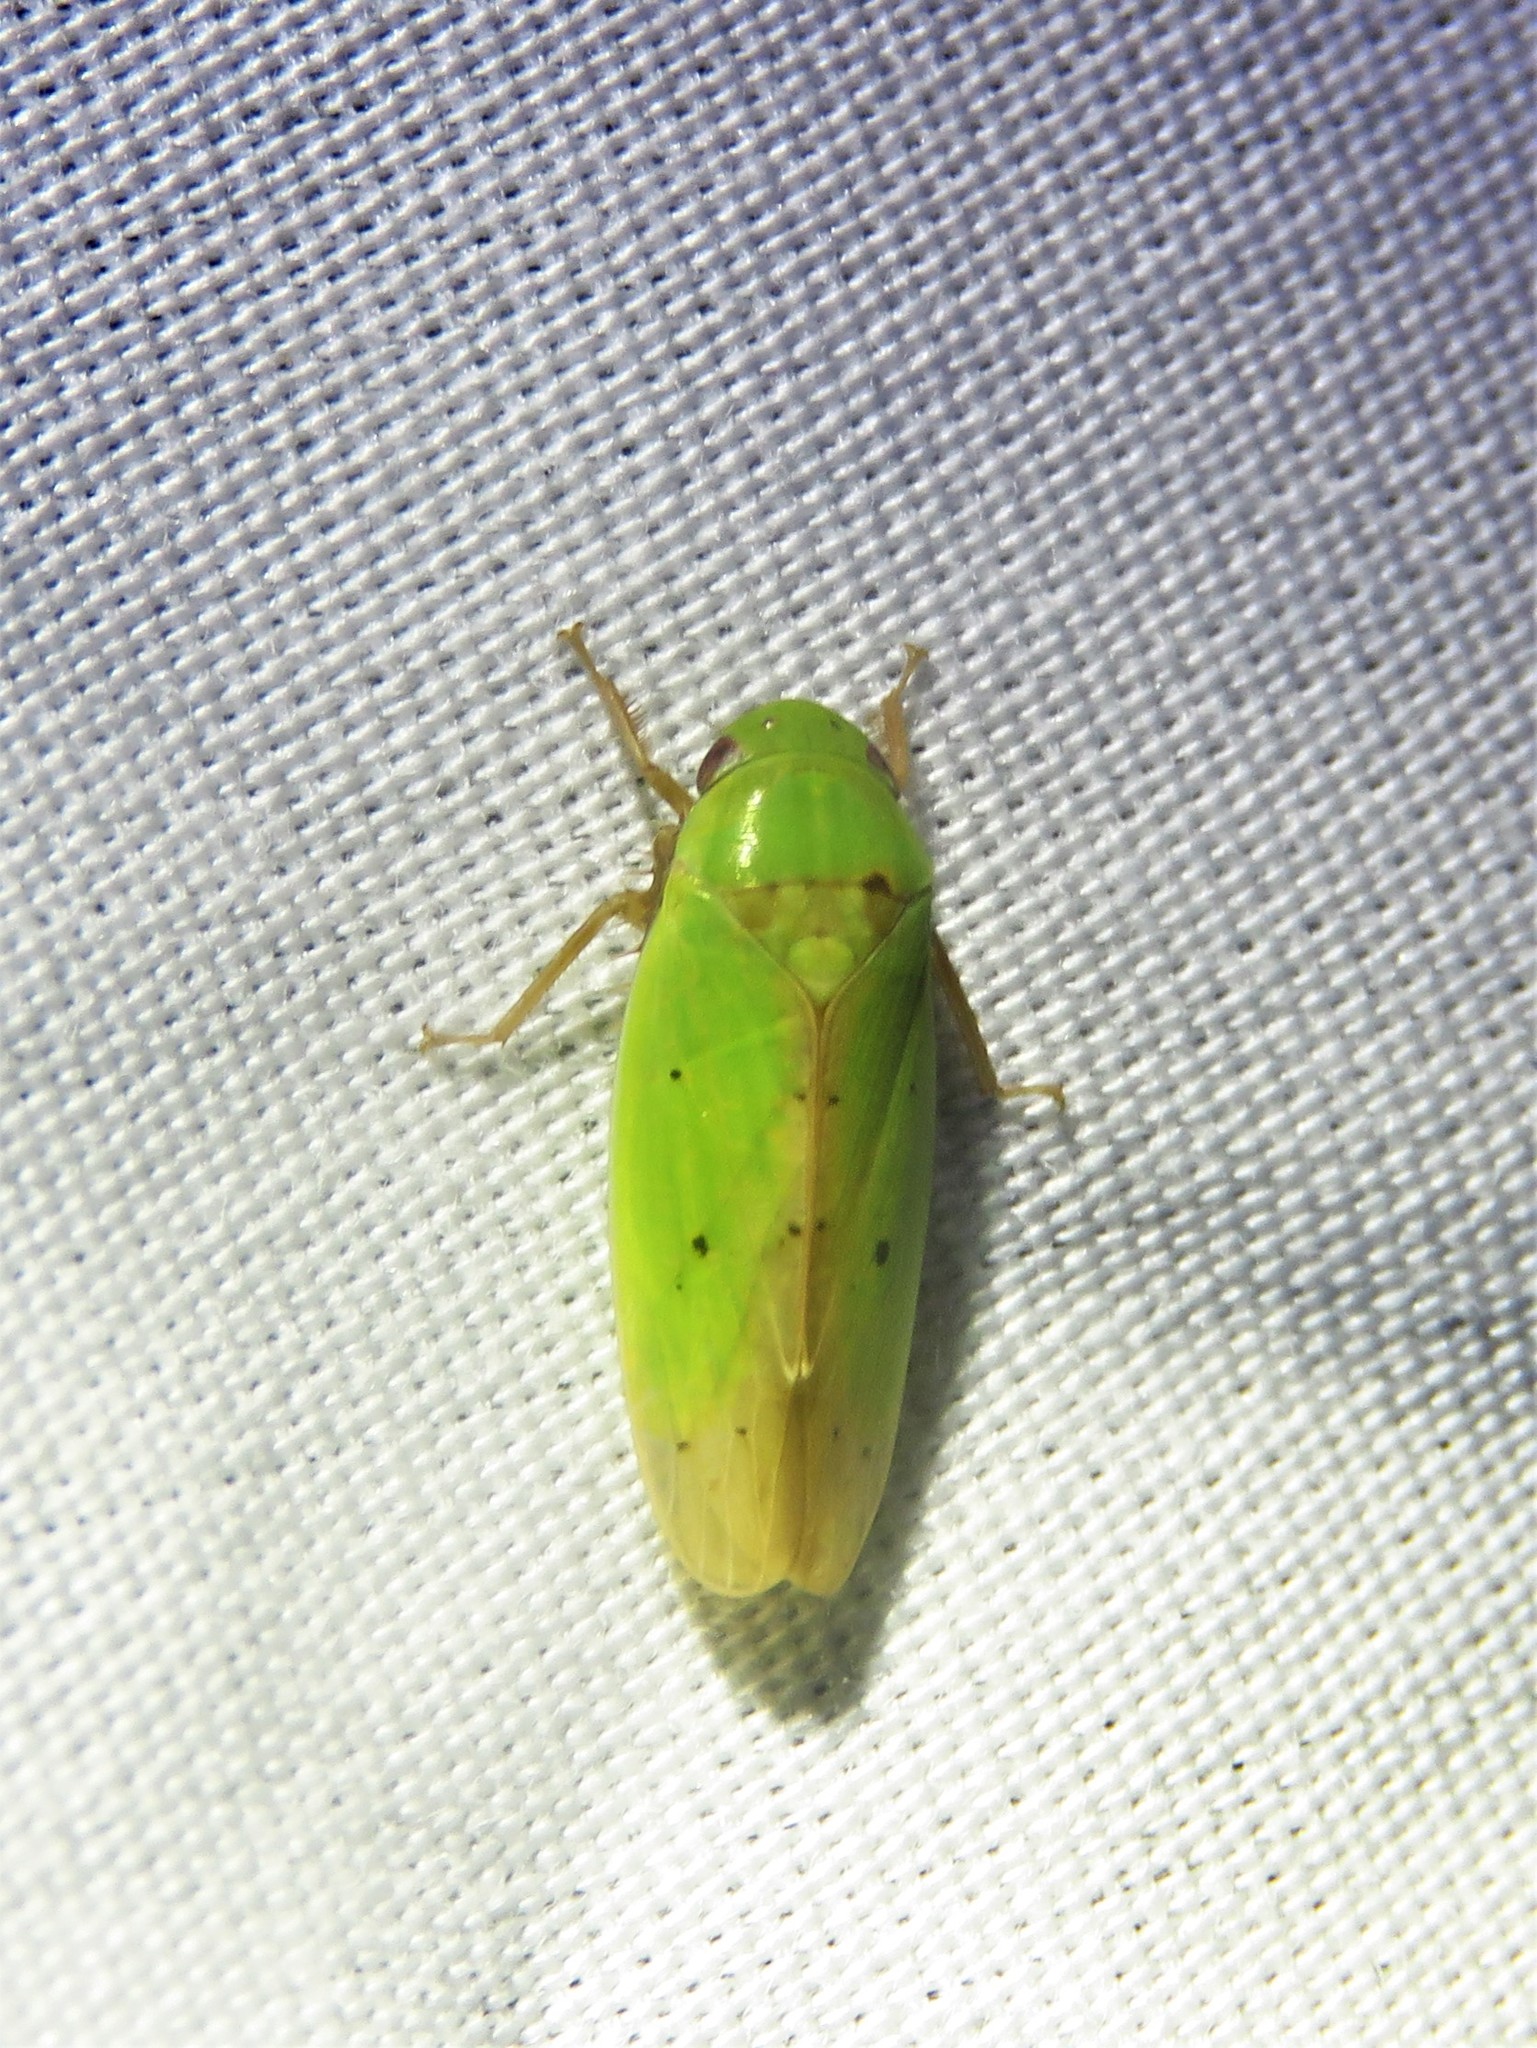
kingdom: Animalia
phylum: Arthropoda
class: Insecta
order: Hemiptera
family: Cicadellidae
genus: Ponana
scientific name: Ponana
